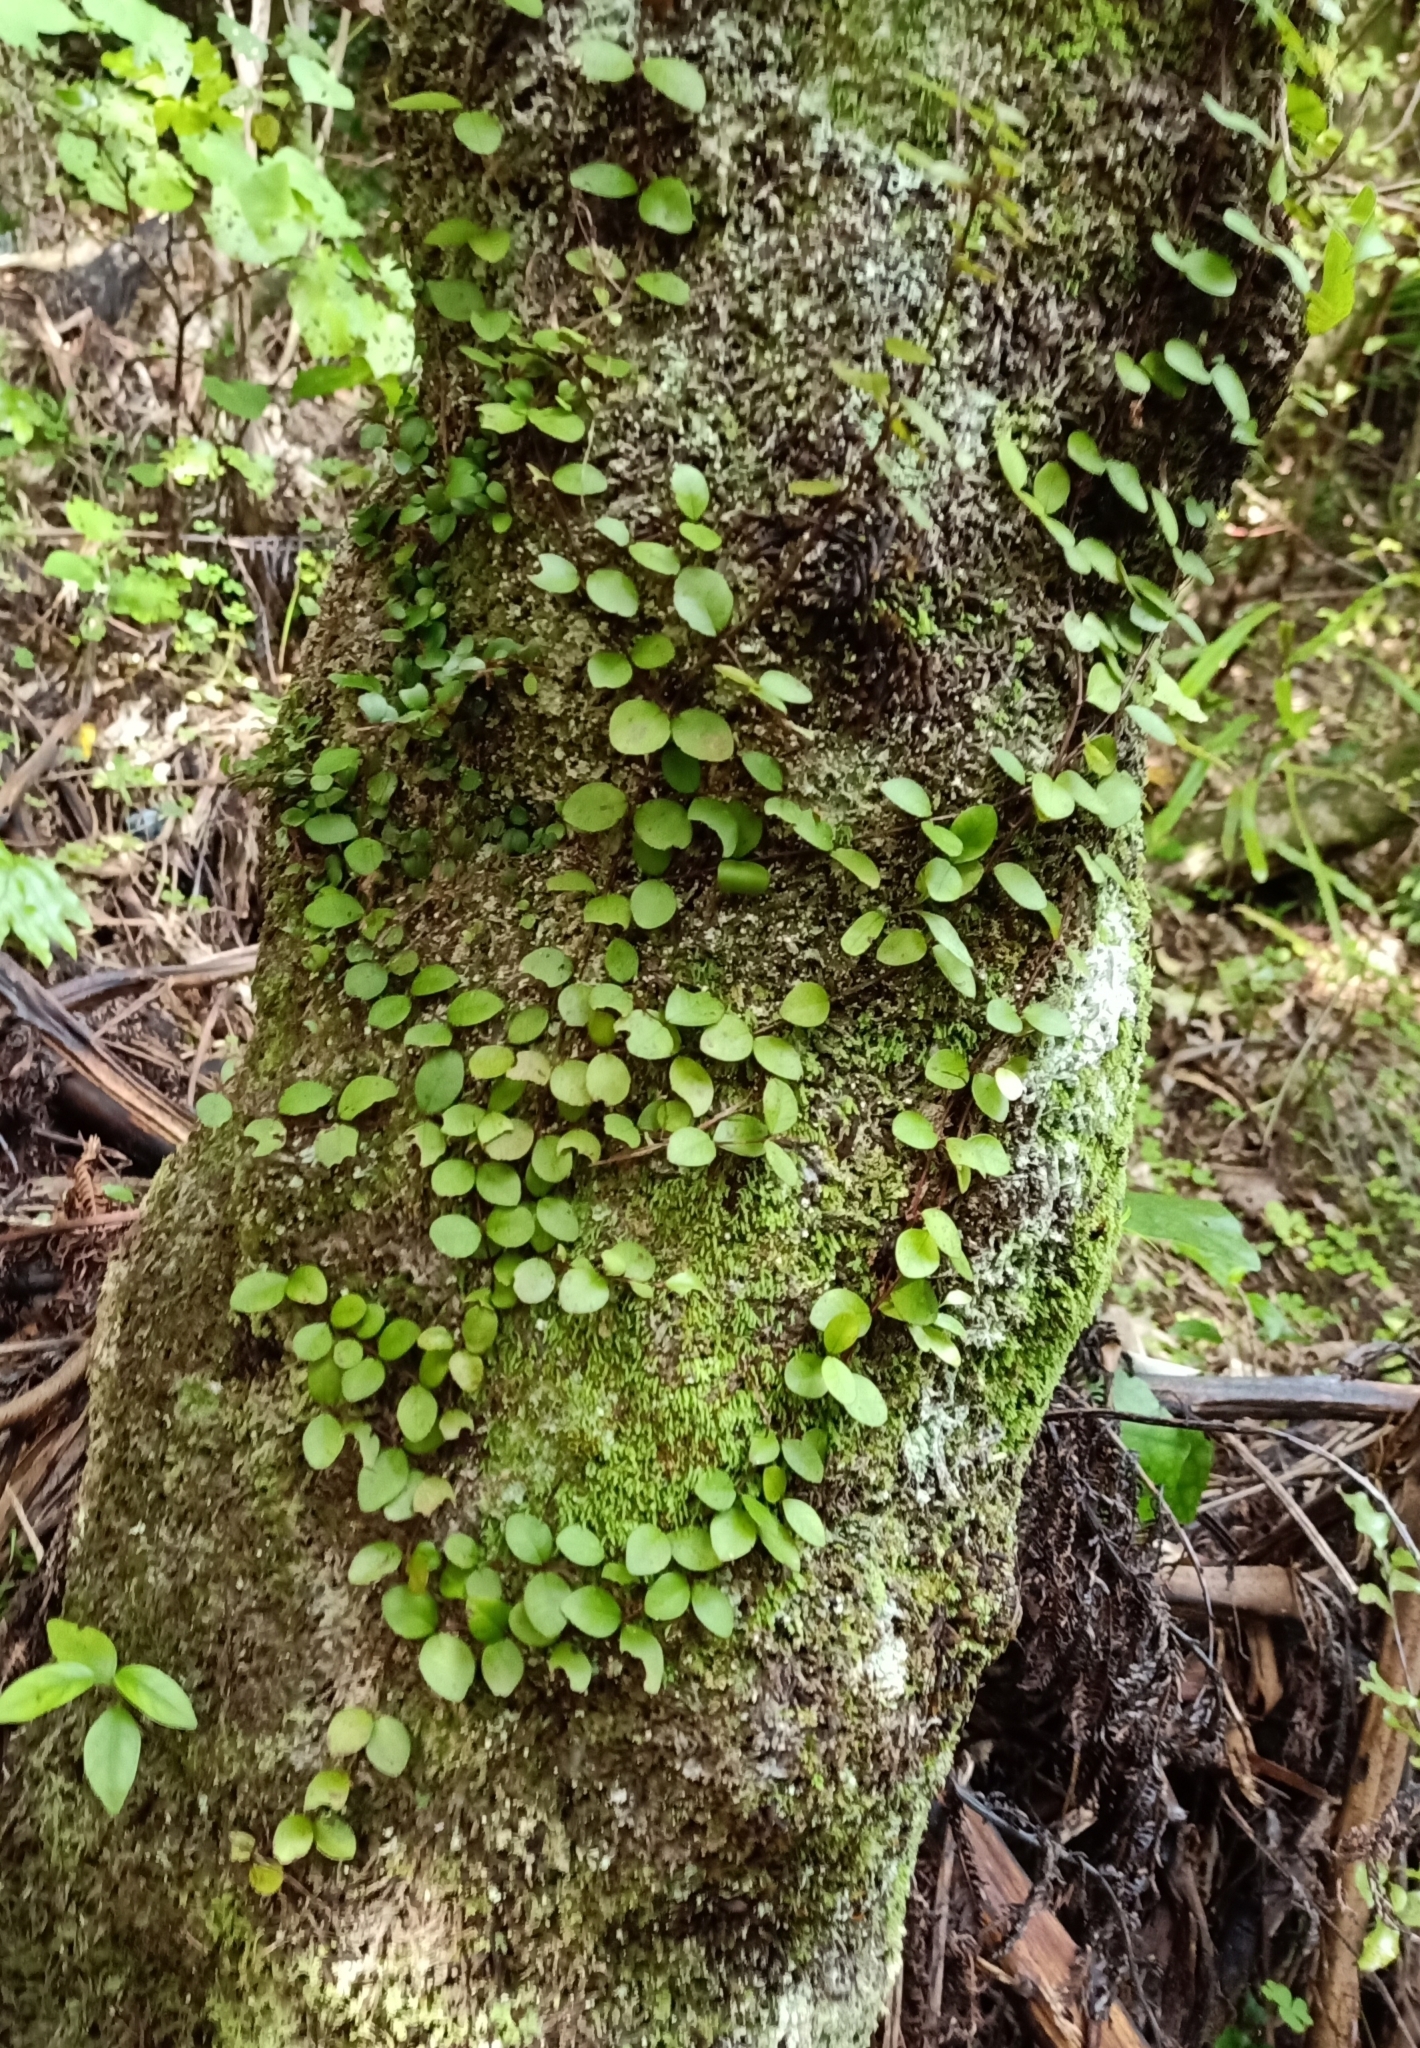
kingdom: Plantae
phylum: Tracheophyta
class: Magnoliopsida
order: Myrtales
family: Myrtaceae
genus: Metrosideros
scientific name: Metrosideros fulgens
